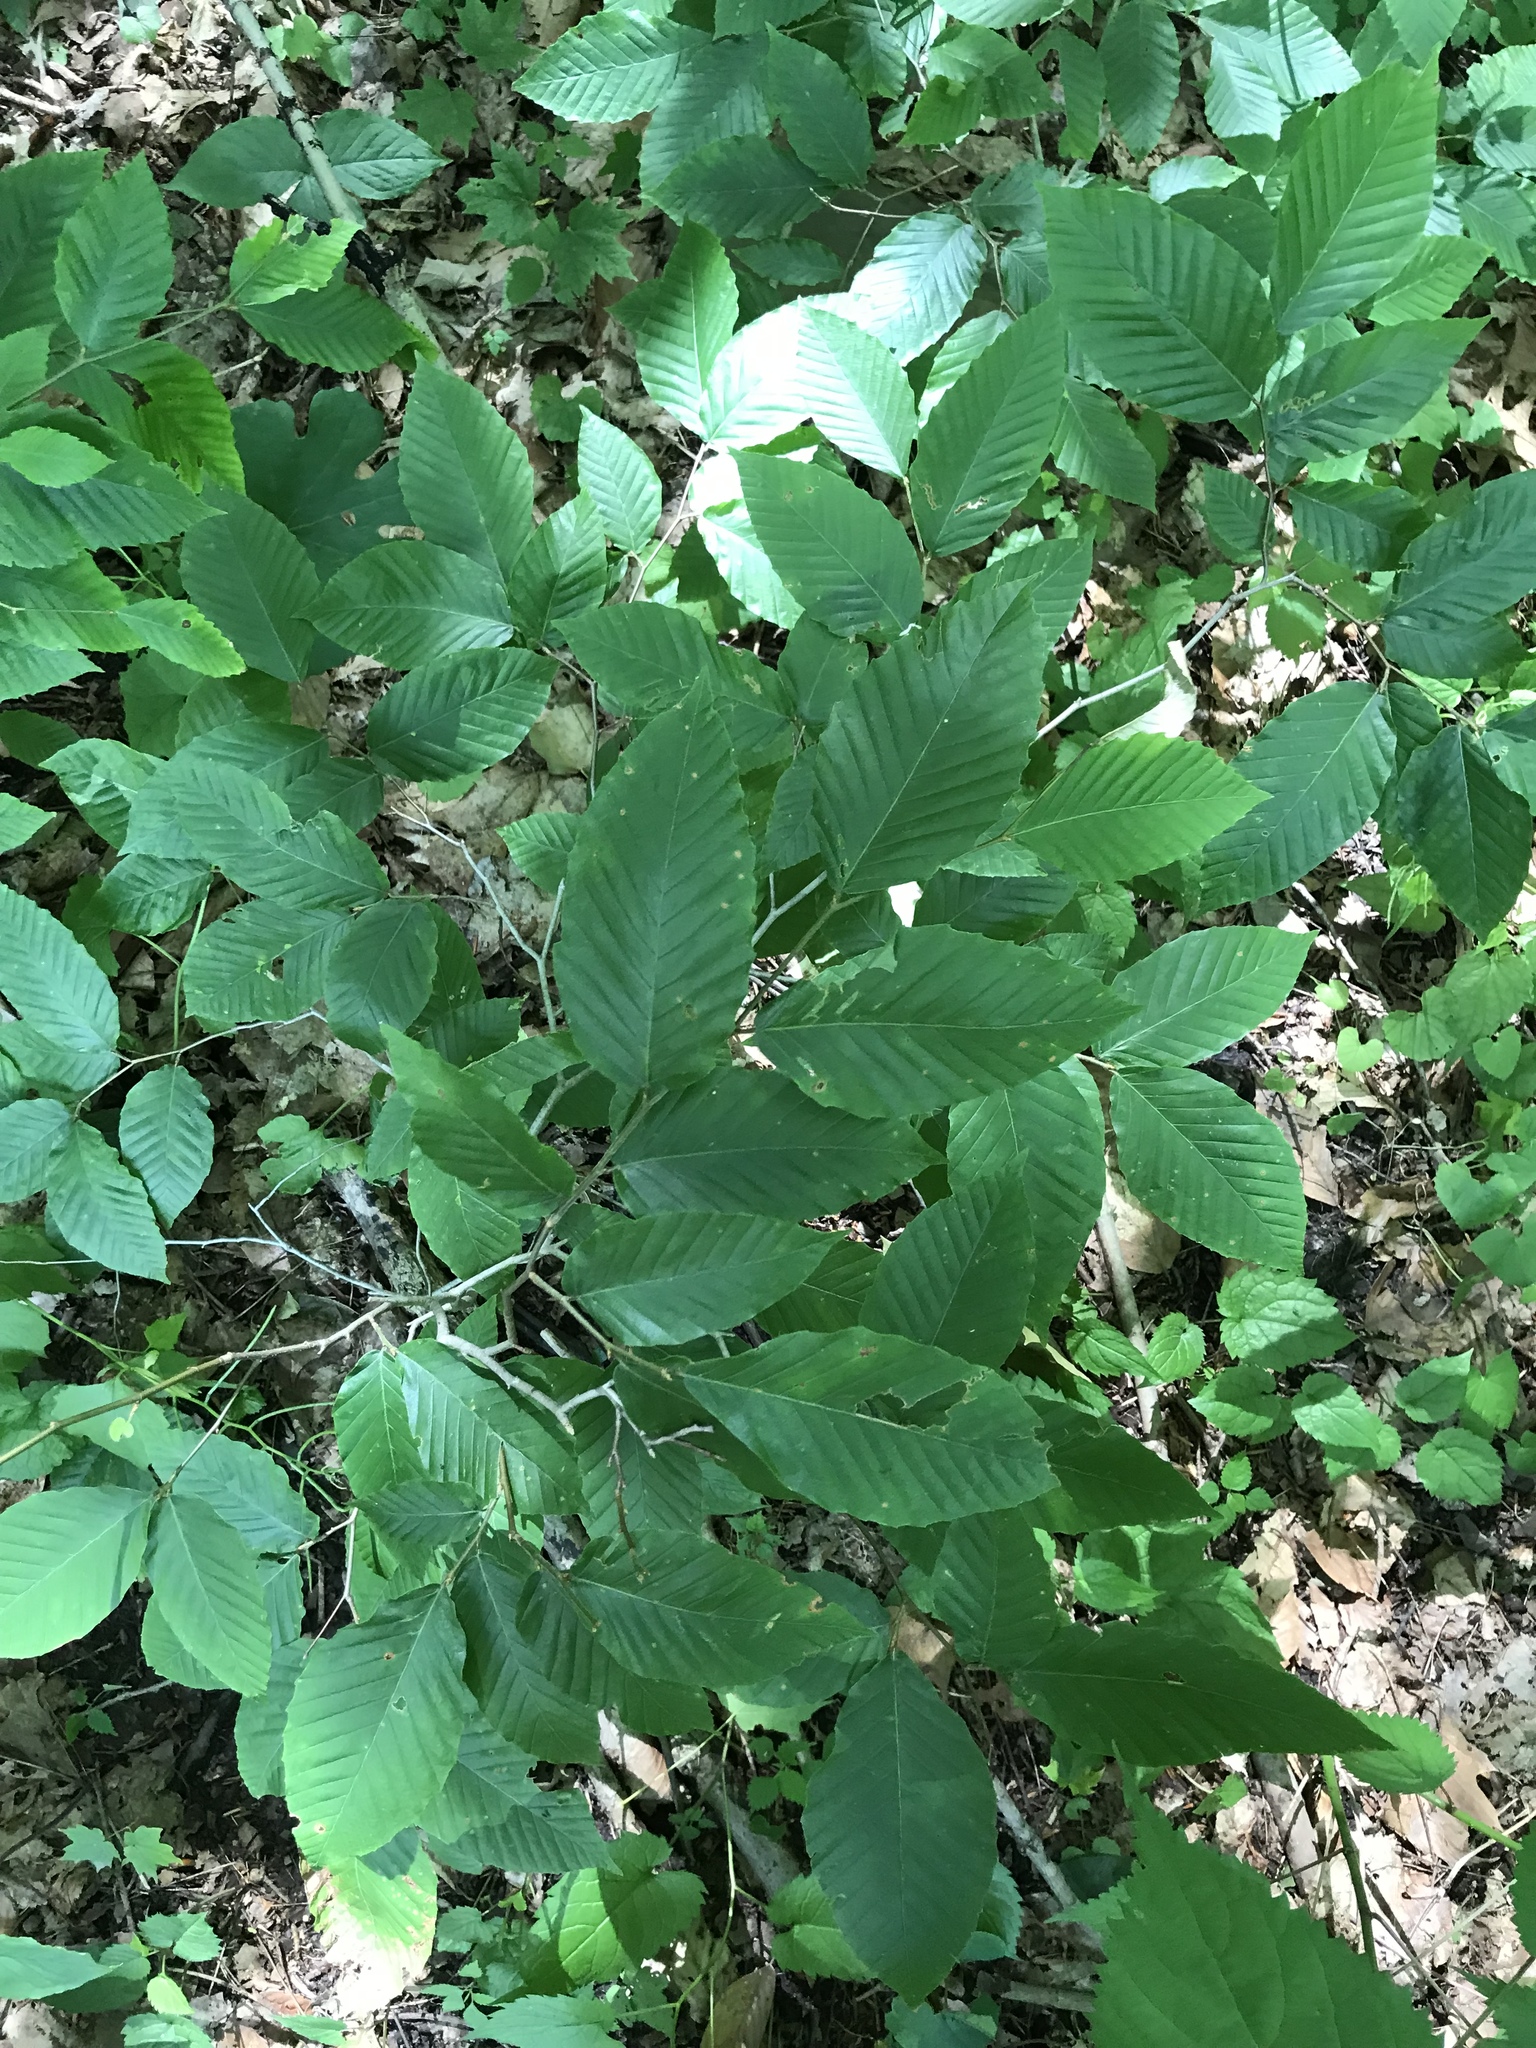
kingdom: Plantae
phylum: Tracheophyta
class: Magnoliopsida
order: Fagales
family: Fagaceae
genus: Fagus
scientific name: Fagus grandifolia
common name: American beech
